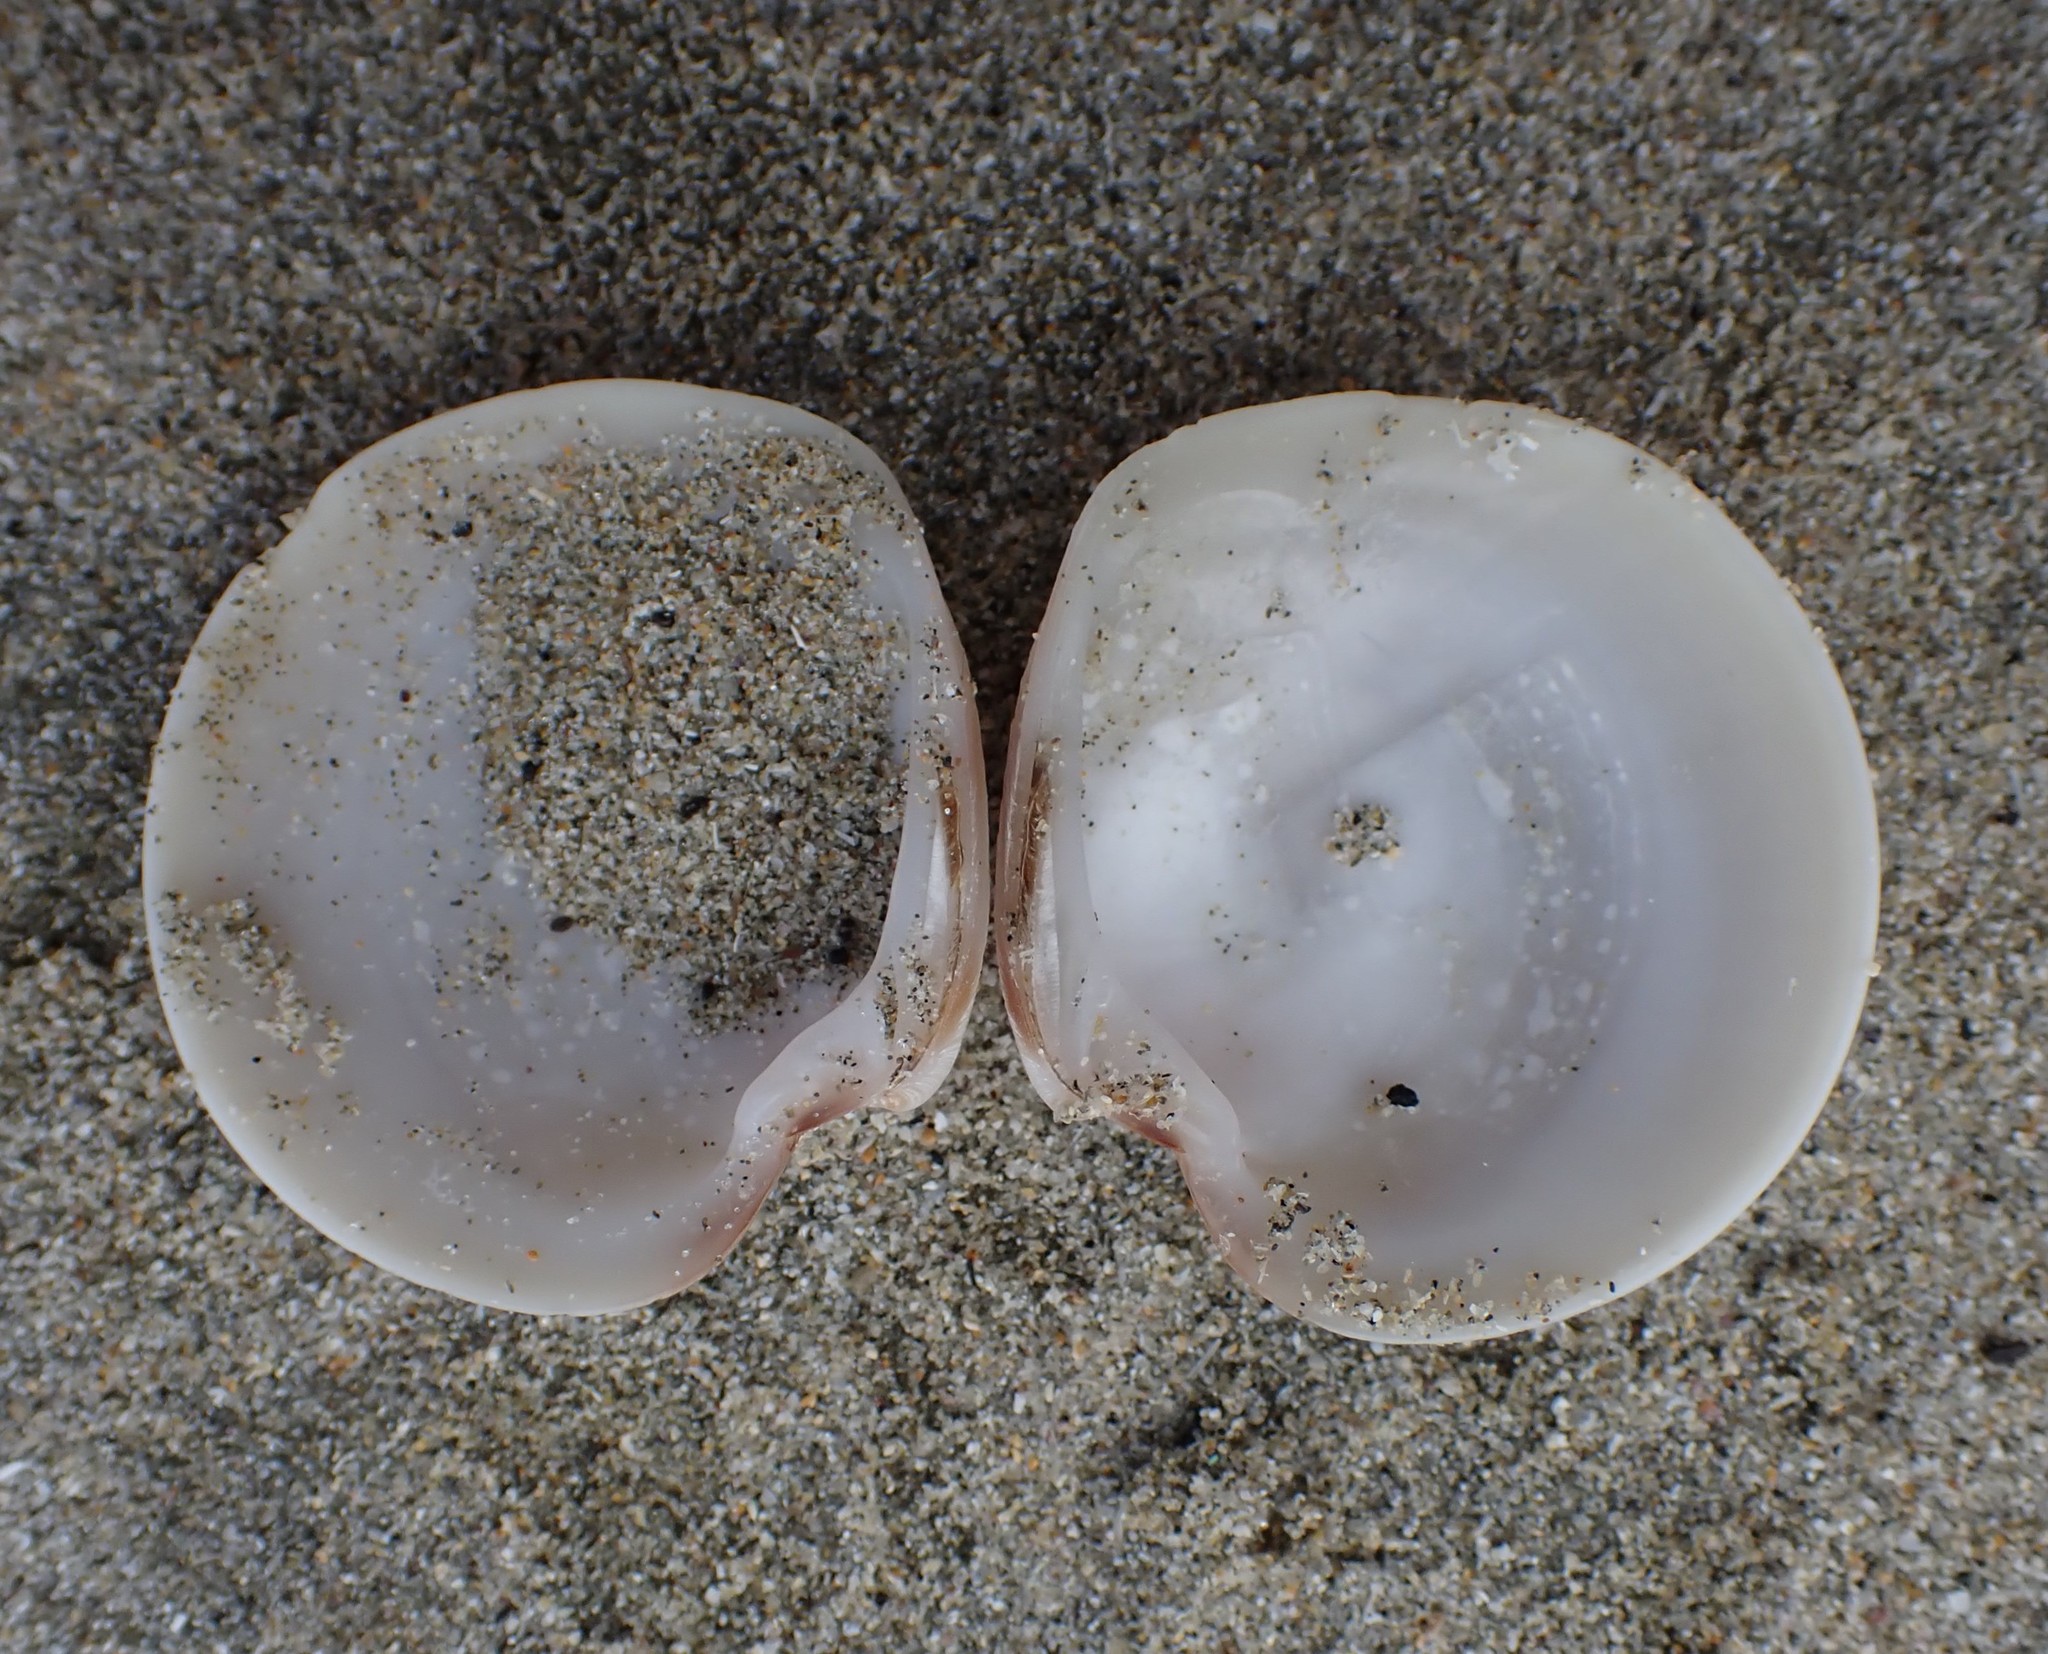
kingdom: Animalia
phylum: Mollusca
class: Bivalvia
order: Venerida
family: Veneridae
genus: Dosinia
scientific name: Dosinia subrosea
